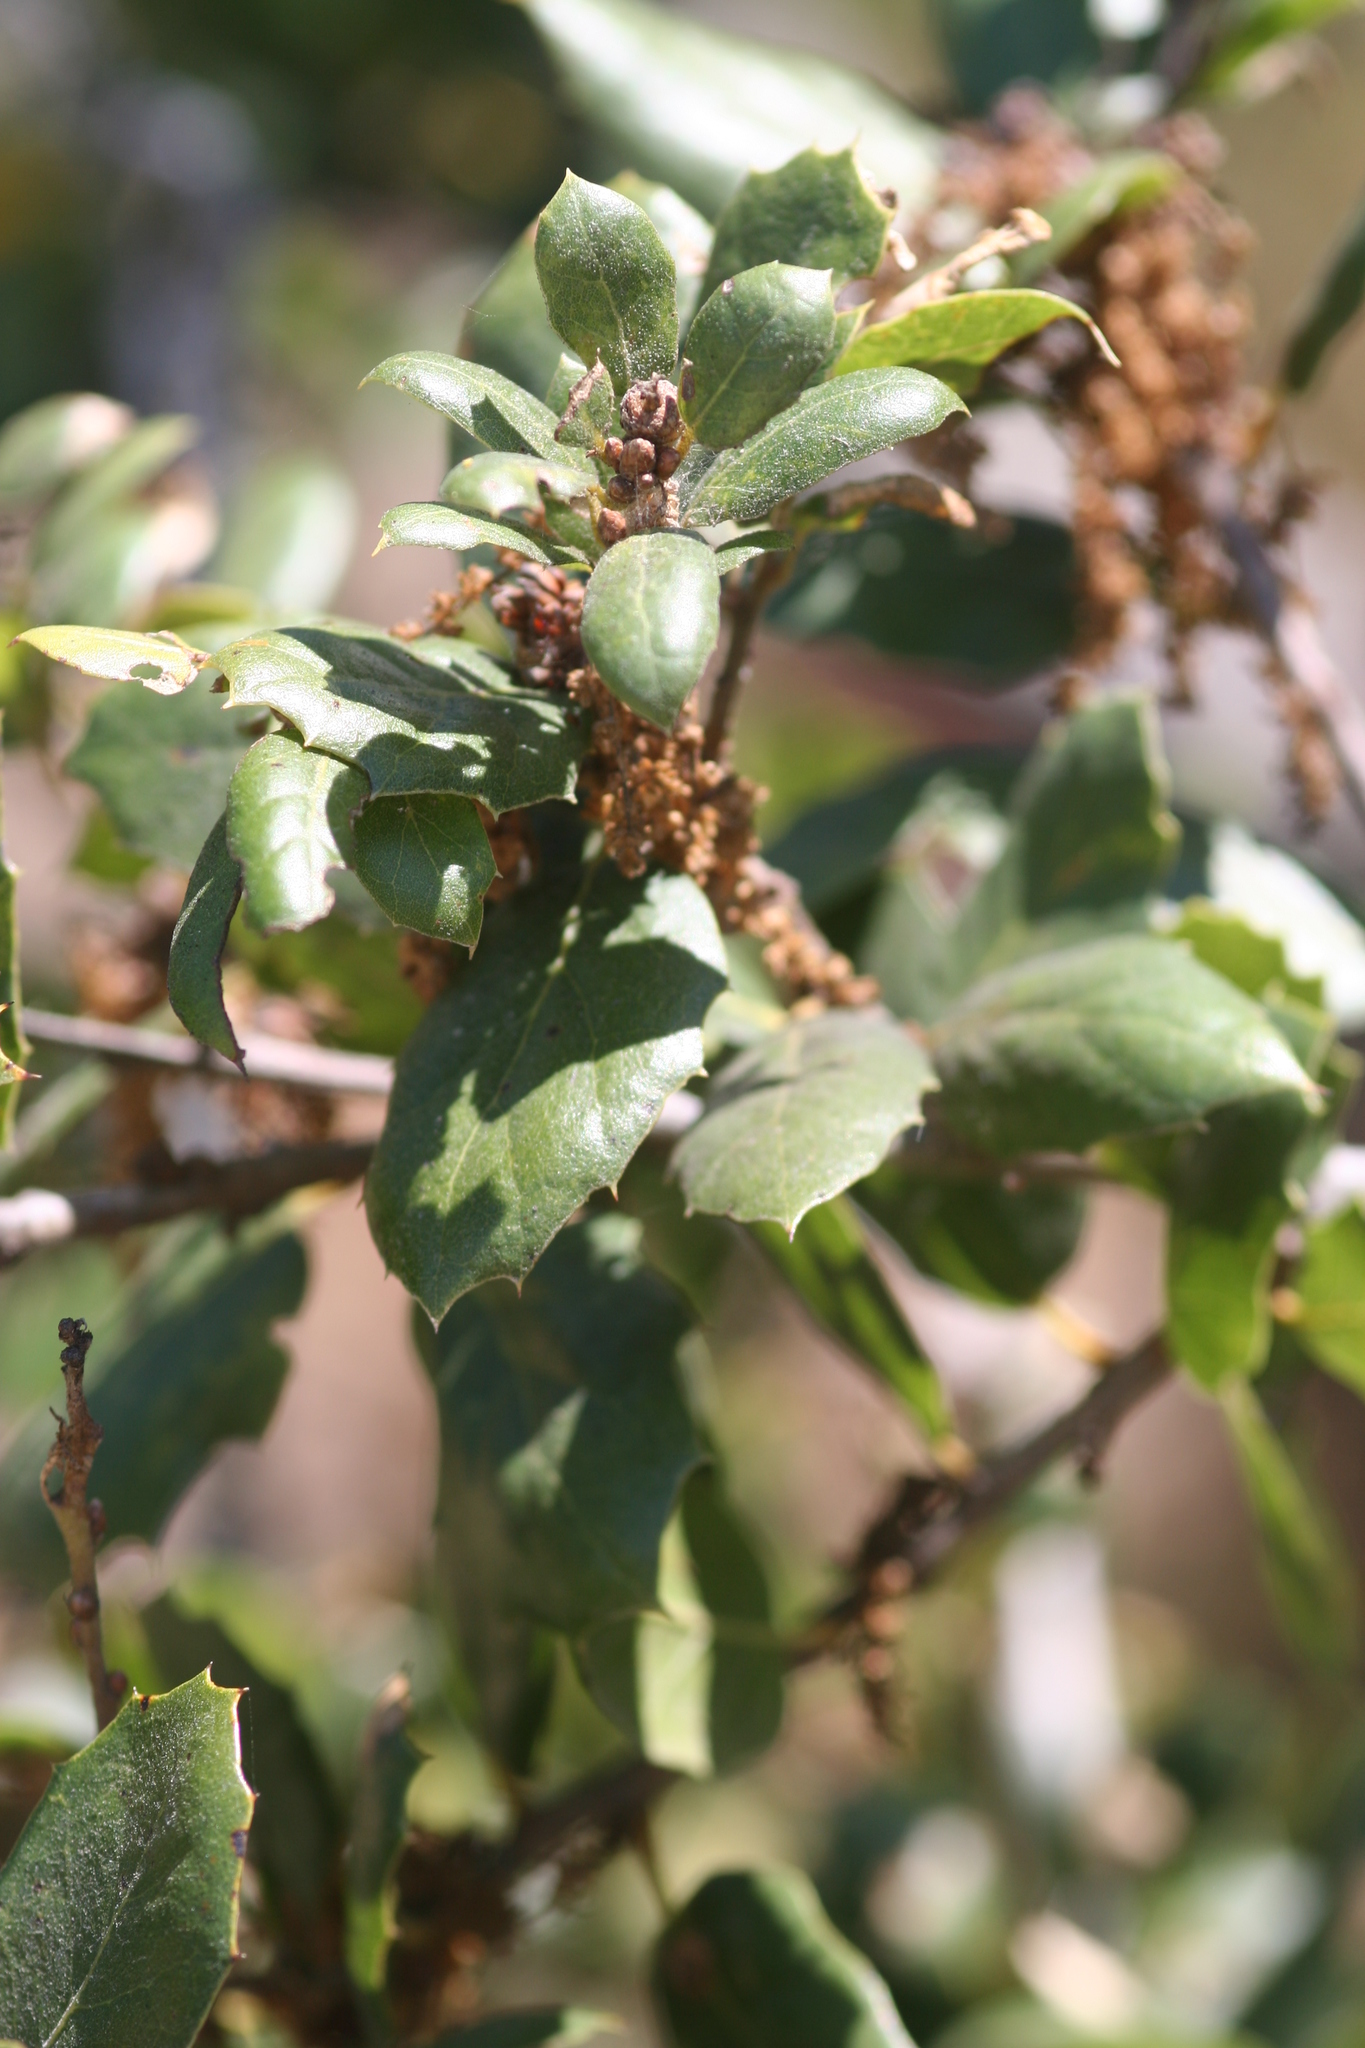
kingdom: Plantae
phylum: Tracheophyta
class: Magnoliopsida
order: Fagales
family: Fagaceae
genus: Quercus
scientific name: Quercus agrifolia
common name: California live oak
